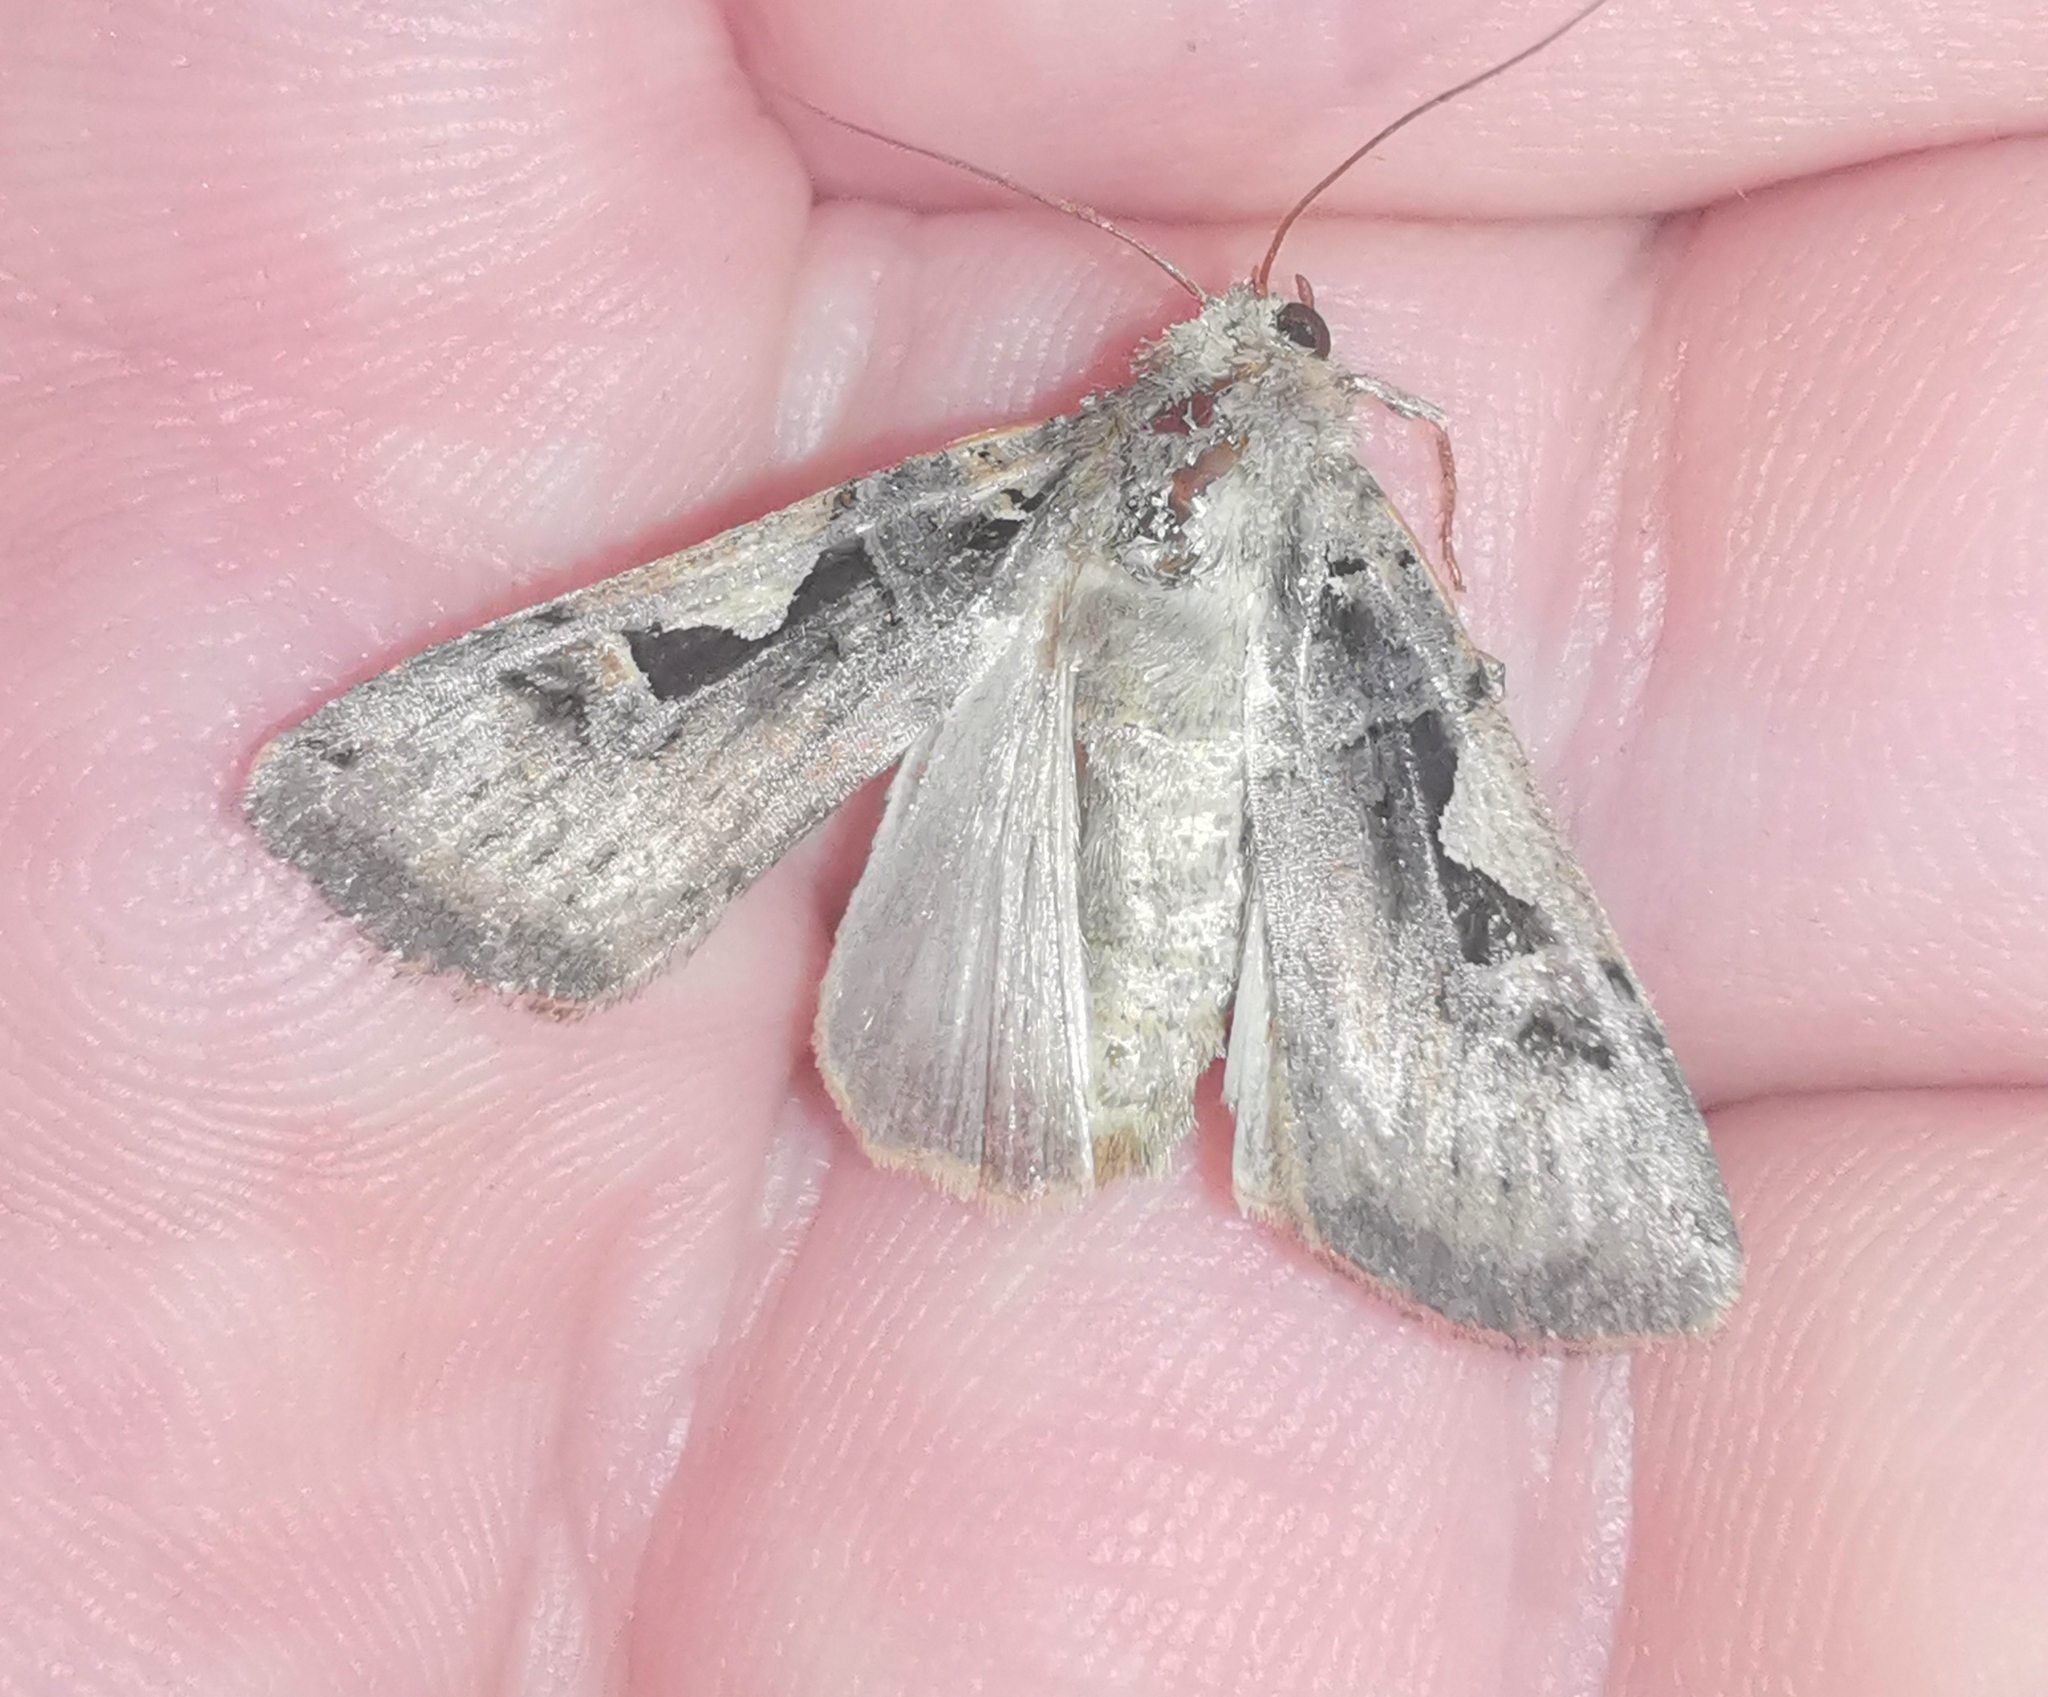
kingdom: Animalia
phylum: Arthropoda
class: Insecta
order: Lepidoptera
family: Noctuidae
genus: Xestia
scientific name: Xestia c-nigrum
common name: Setaceous hebrew character
